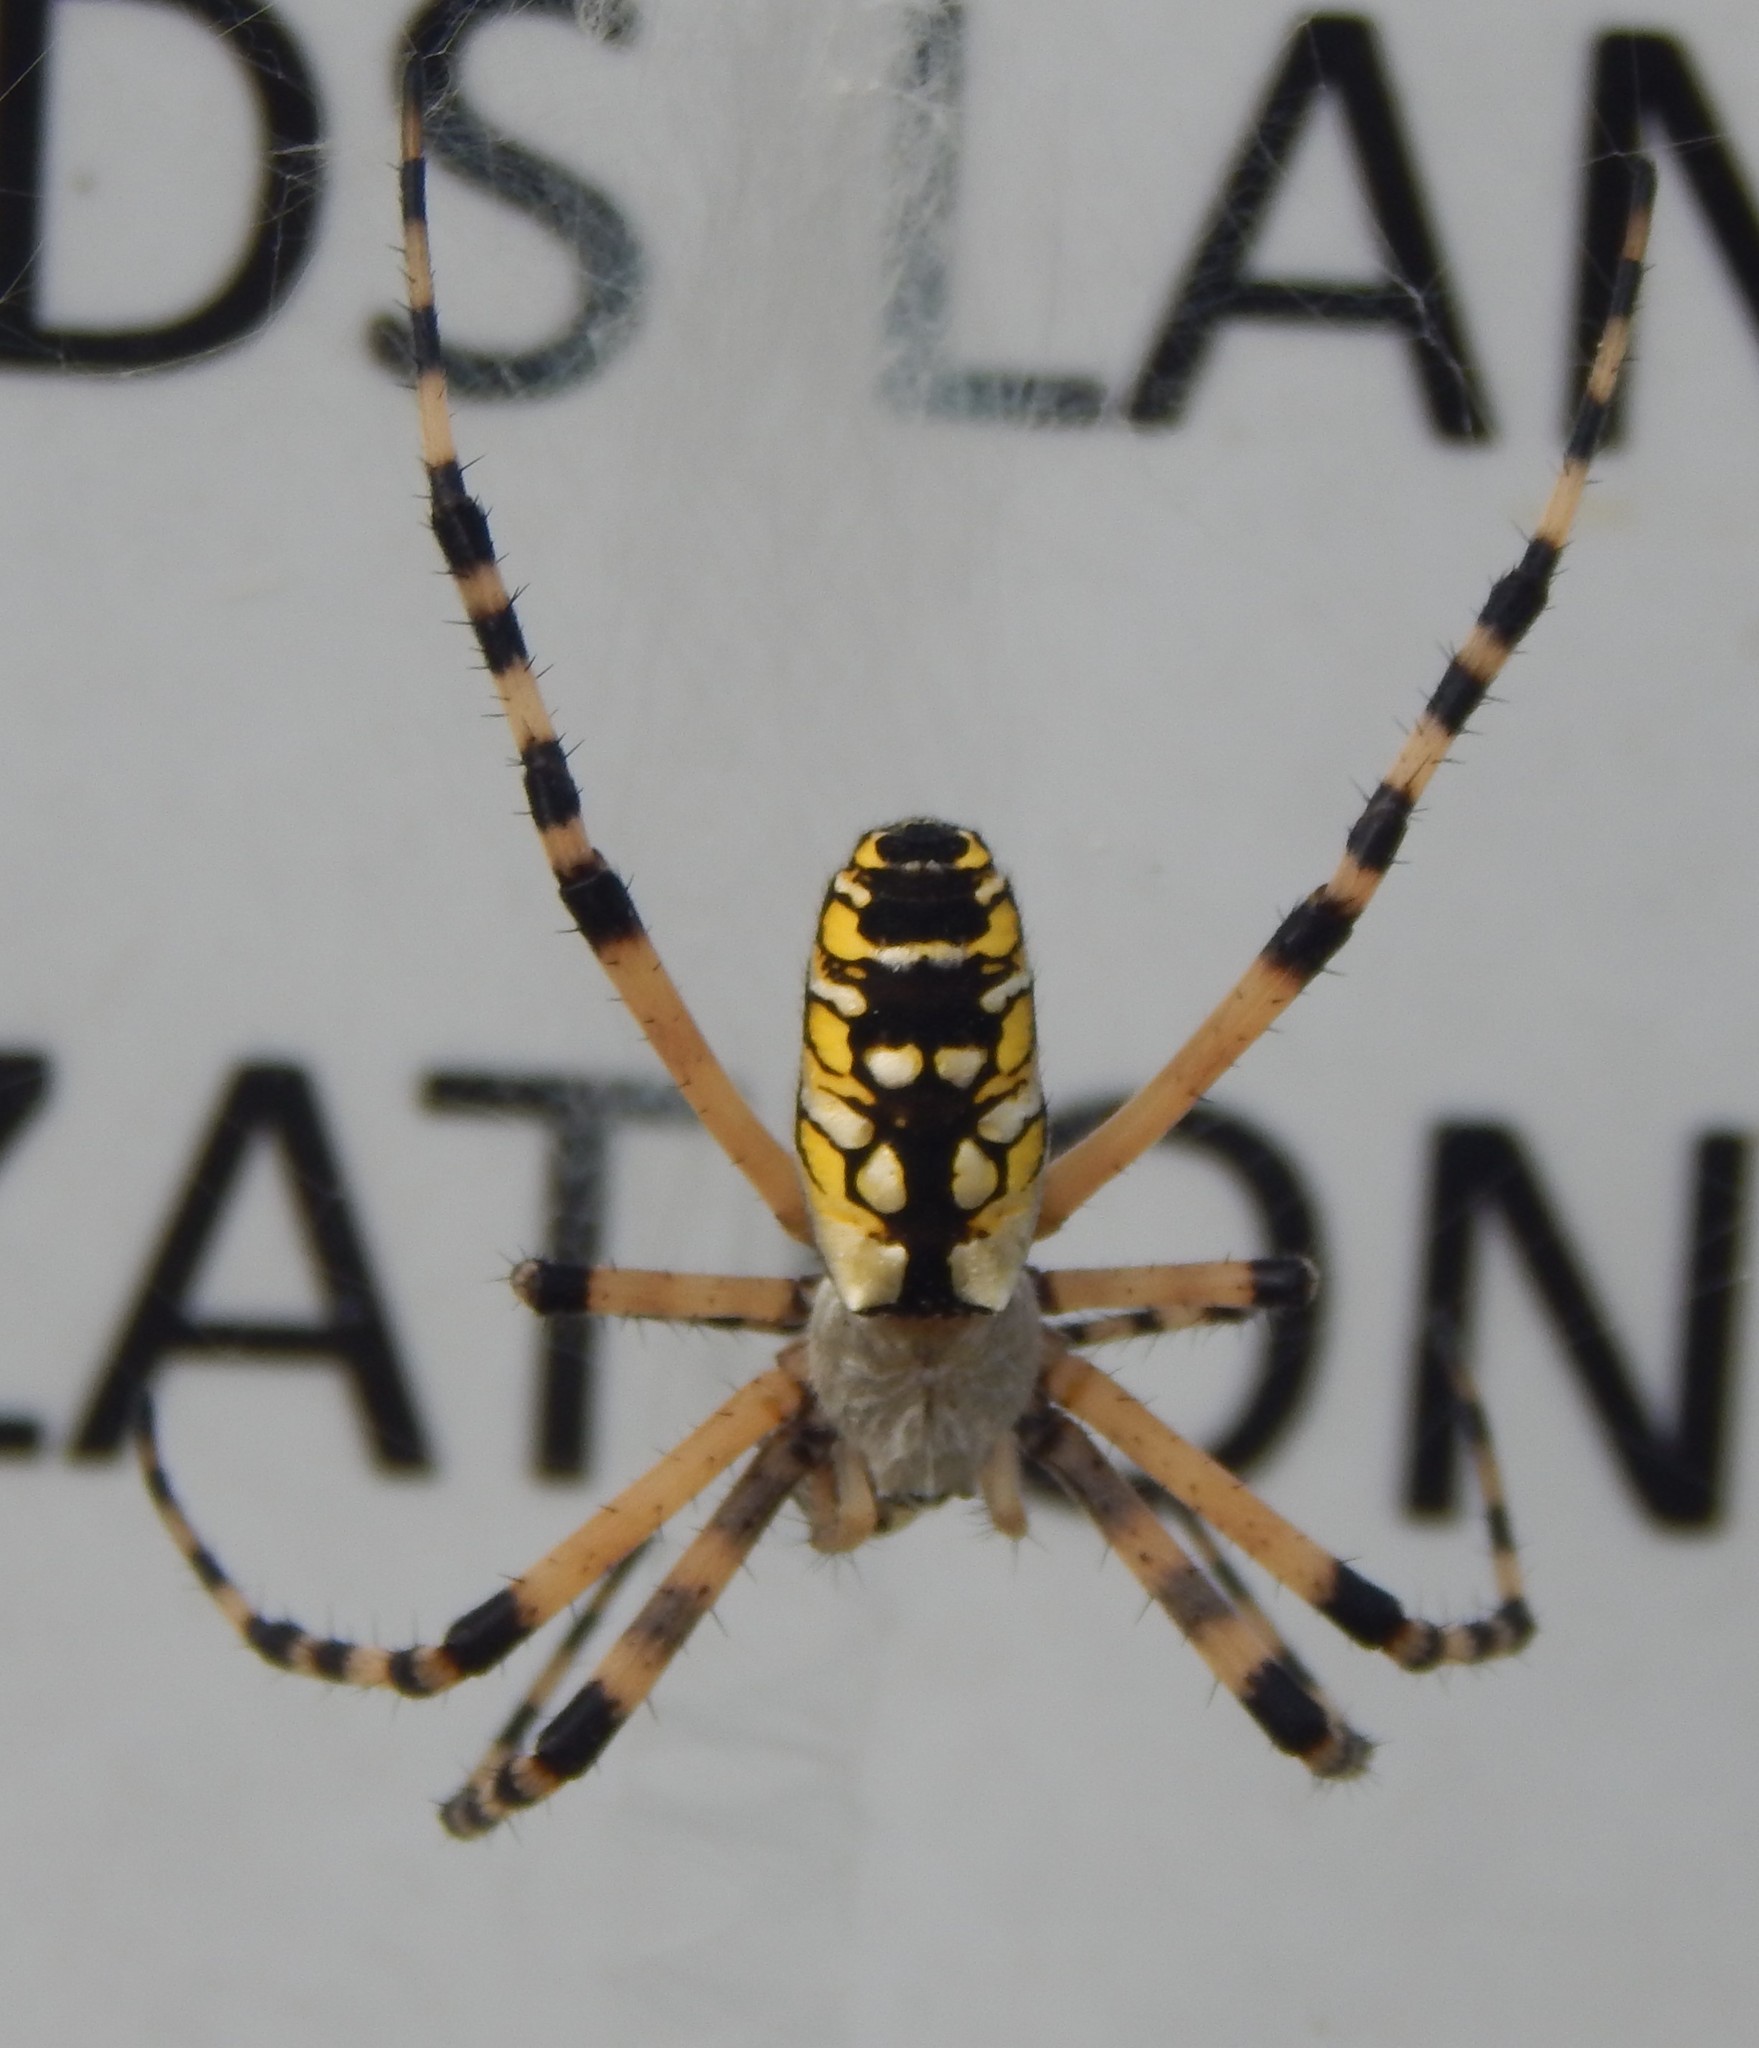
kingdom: Animalia
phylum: Arthropoda
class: Arachnida
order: Araneae
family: Araneidae
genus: Argiope
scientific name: Argiope aurantia
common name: Orb weavers
